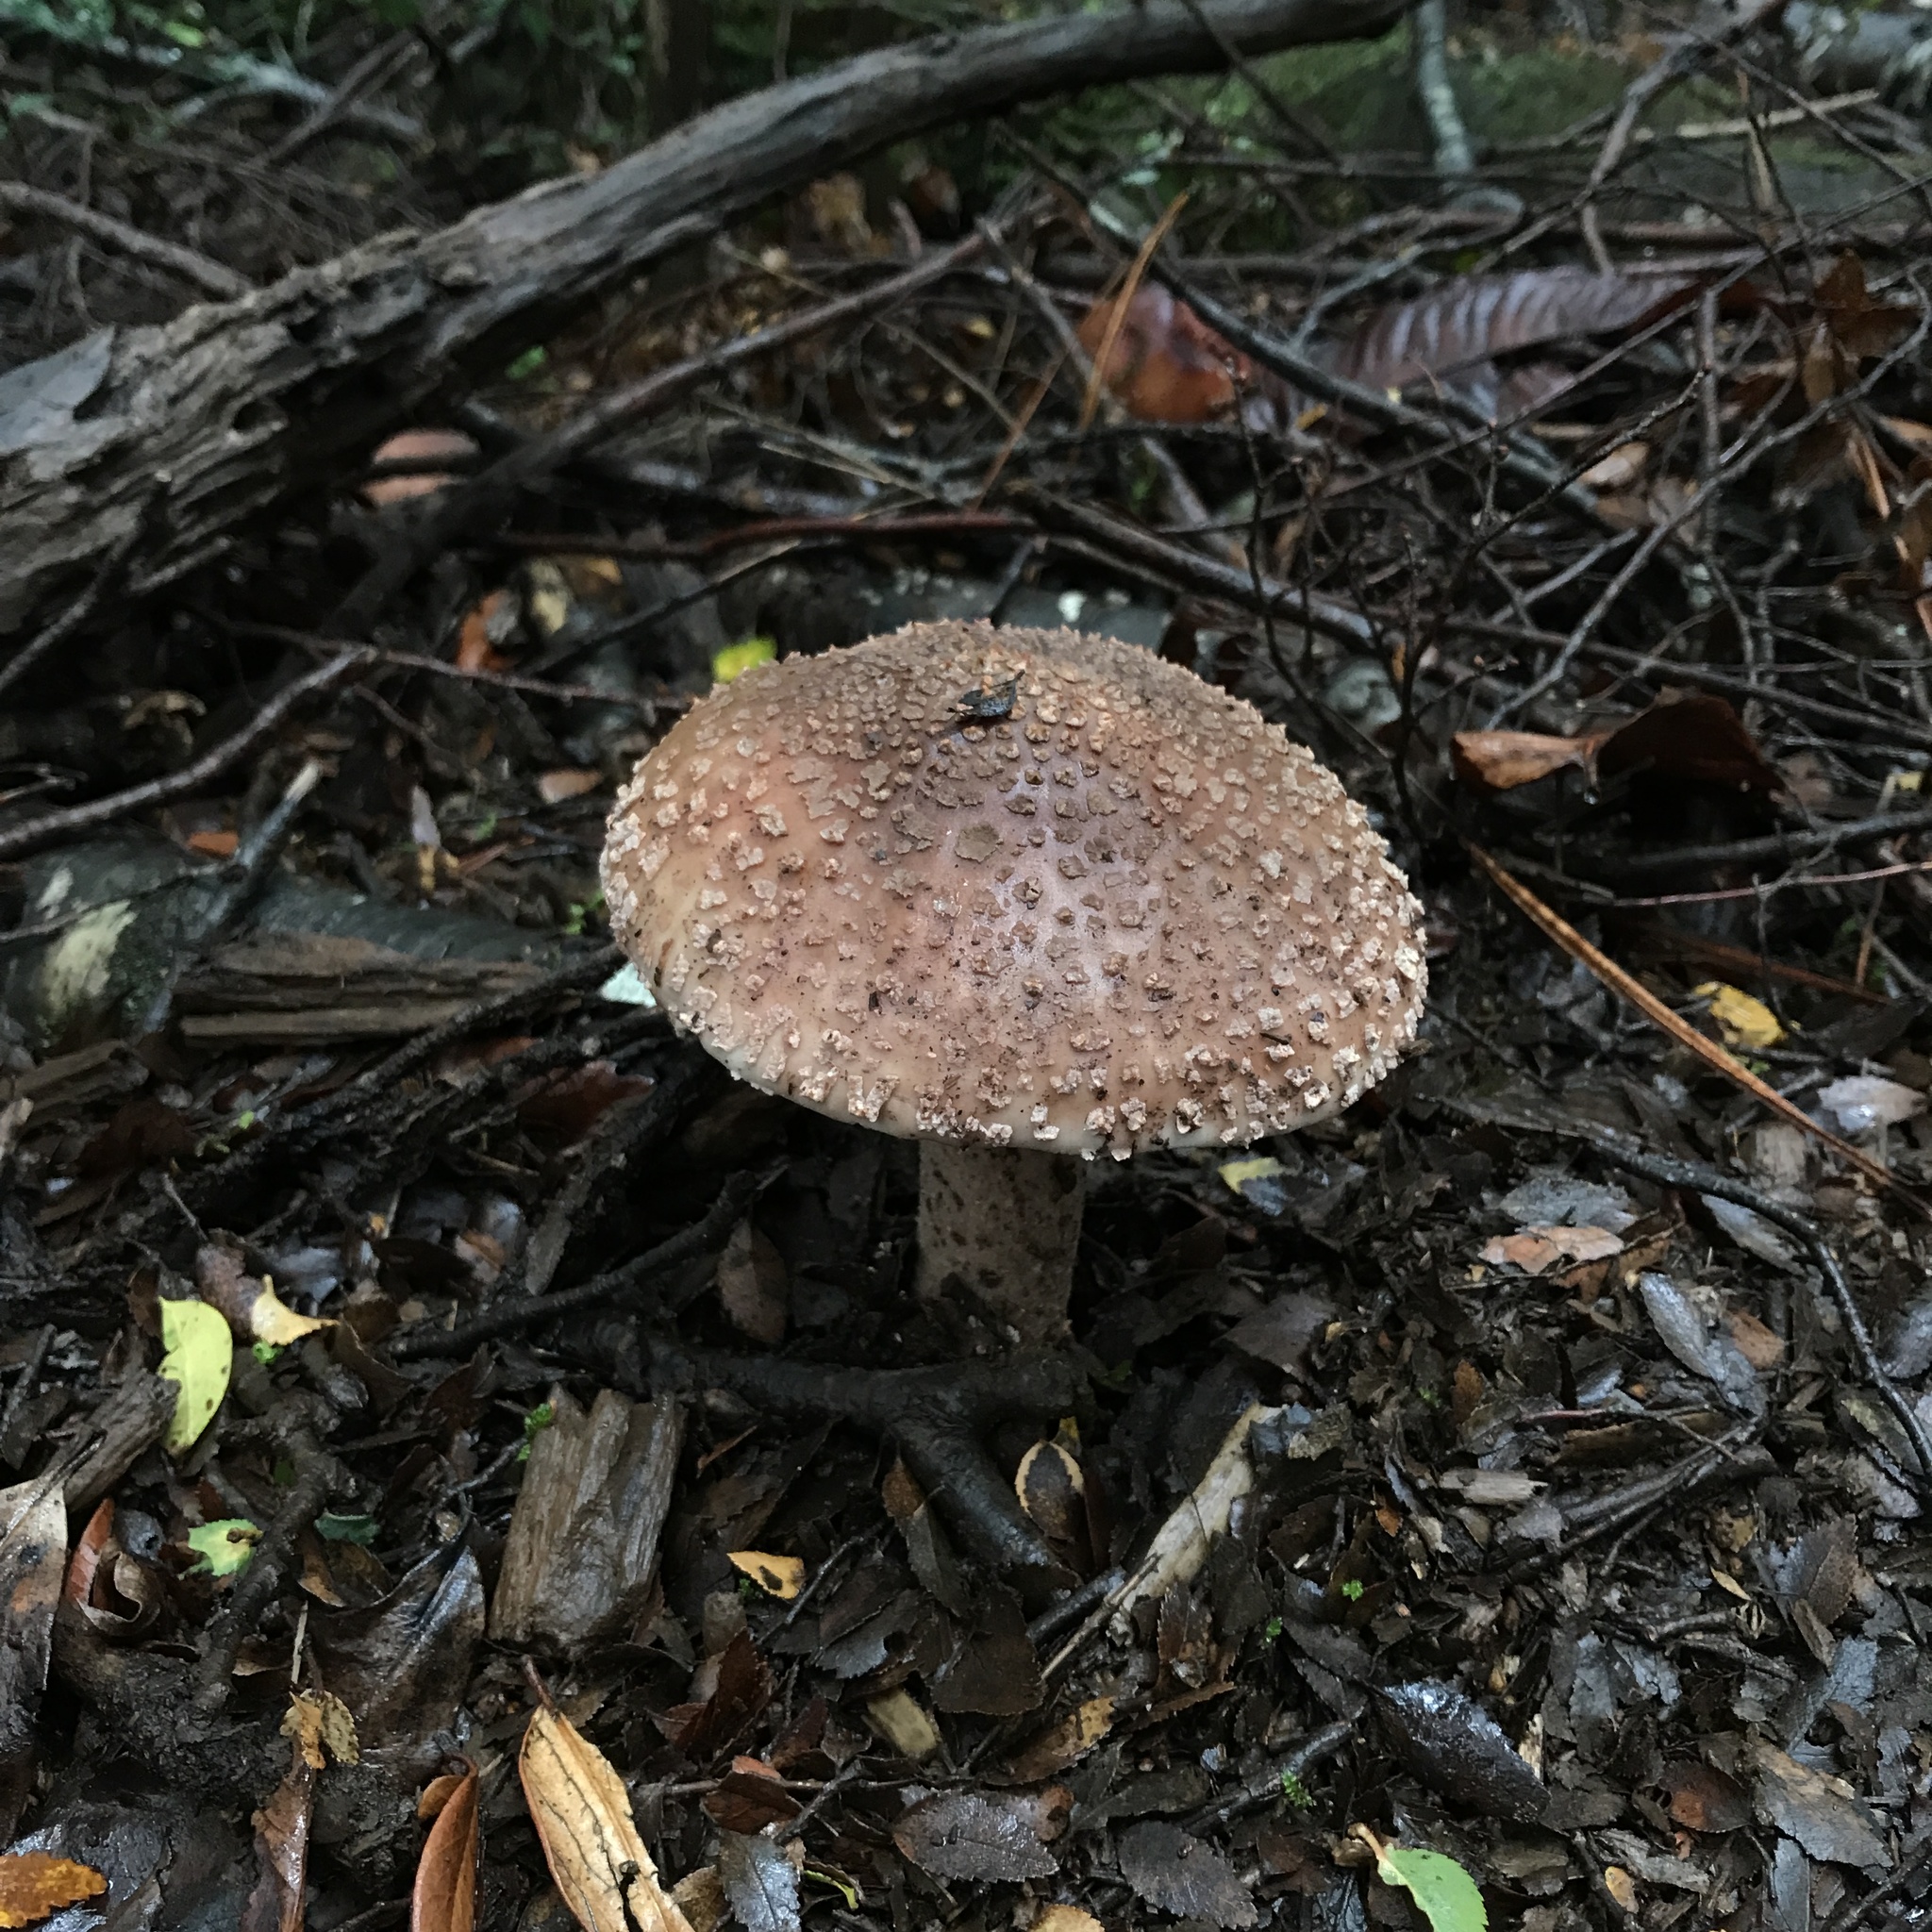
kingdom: Fungi
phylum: Basidiomycota
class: Agaricomycetes
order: Agaricales
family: Amanitaceae
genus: Amanita
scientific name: Amanita rubescens
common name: Blusher
